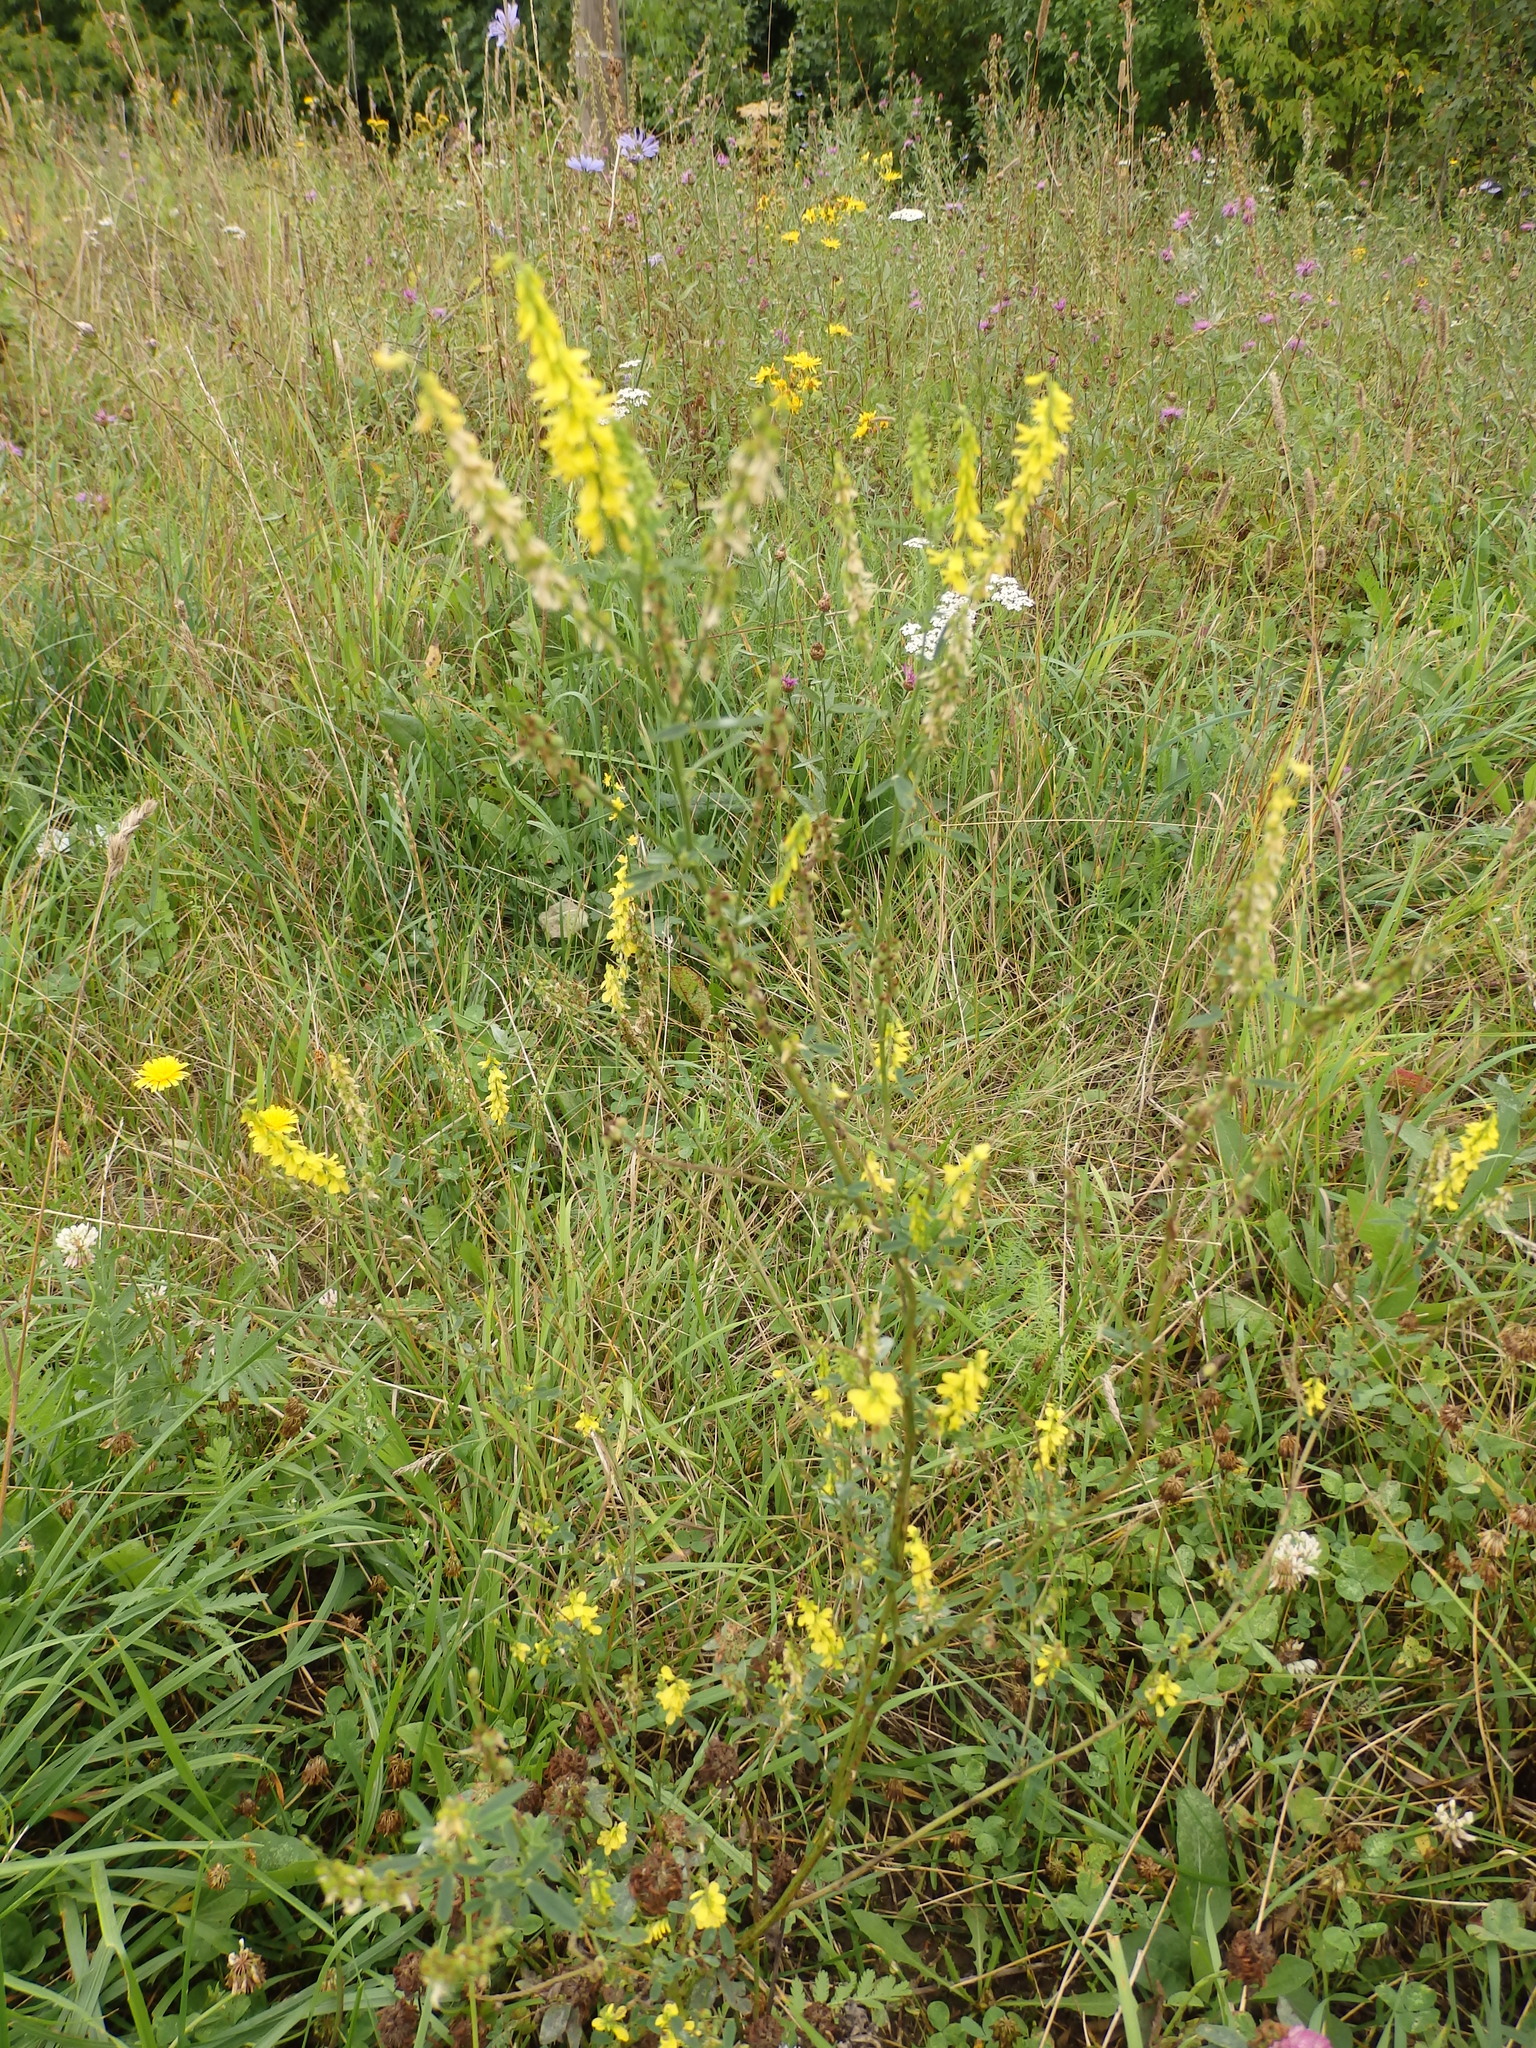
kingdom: Plantae
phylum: Tracheophyta
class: Magnoliopsida
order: Fabales
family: Fabaceae
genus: Melilotus
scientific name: Melilotus officinalis
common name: Sweetclover
